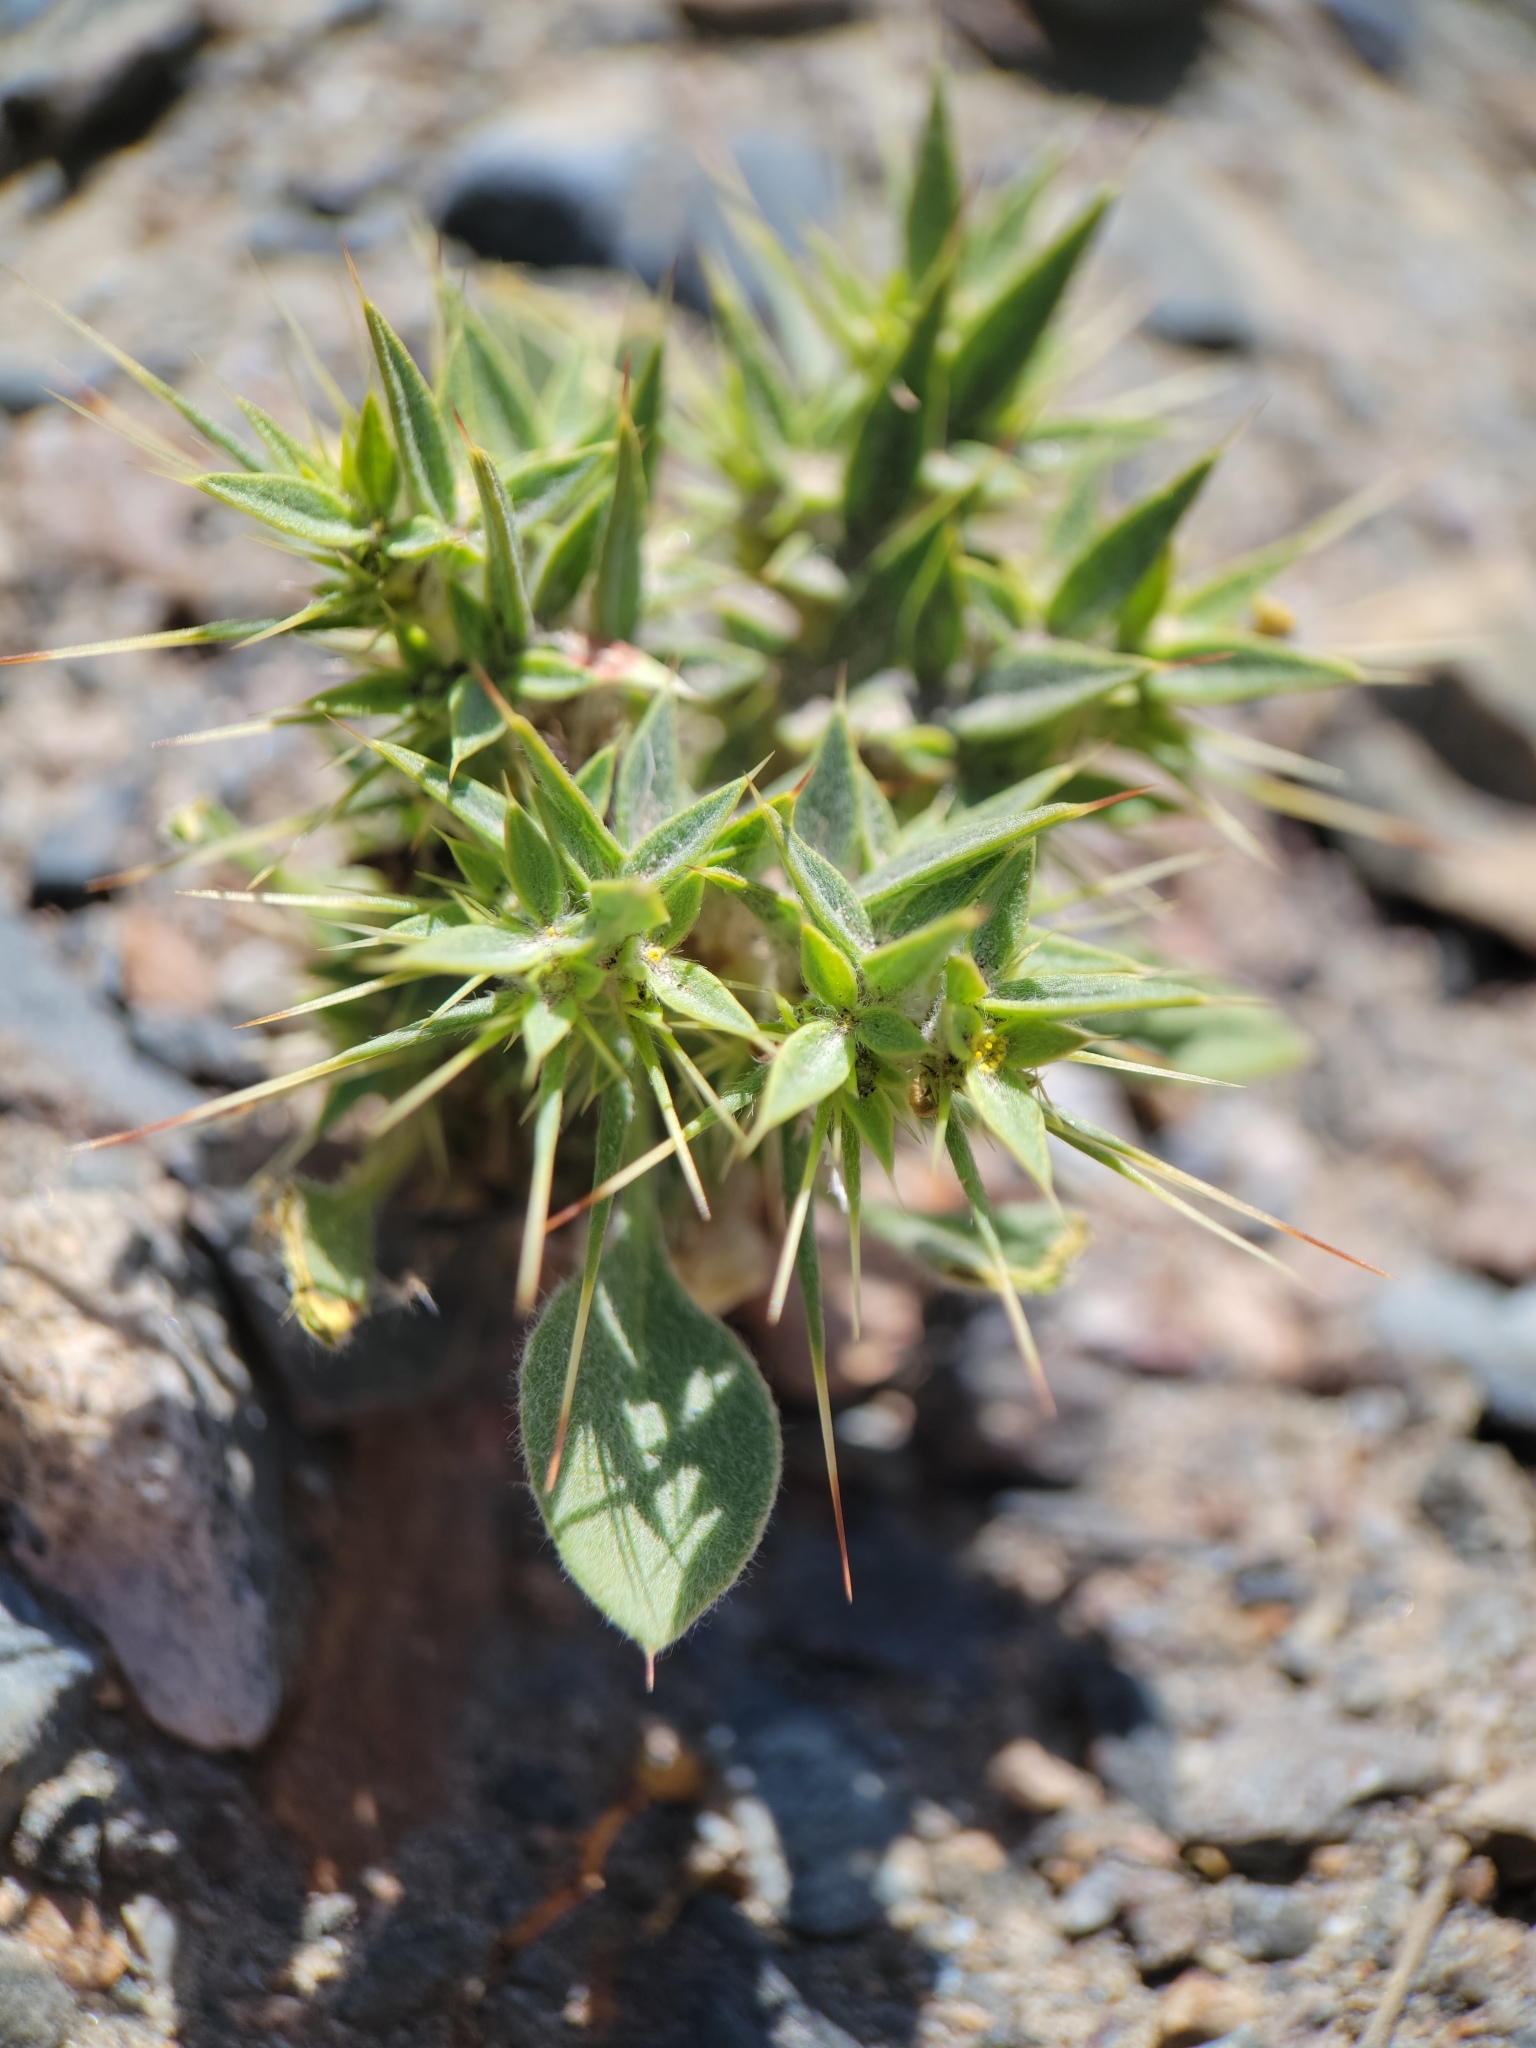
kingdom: Plantae
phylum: Tracheophyta
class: Magnoliopsida
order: Caryophyllales
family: Polygonaceae
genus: Chorizanthe
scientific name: Chorizanthe rigida
